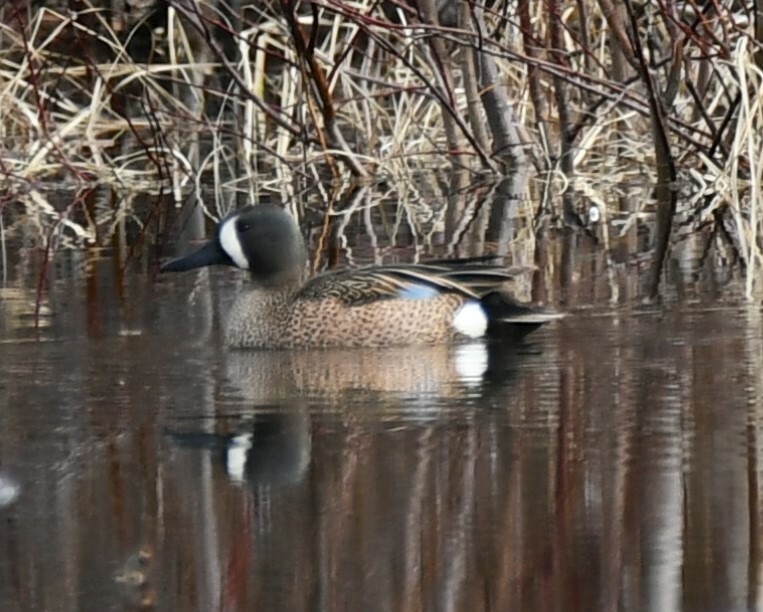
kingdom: Animalia
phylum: Chordata
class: Aves
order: Anseriformes
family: Anatidae
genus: Spatula
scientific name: Spatula discors
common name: Blue-winged teal
